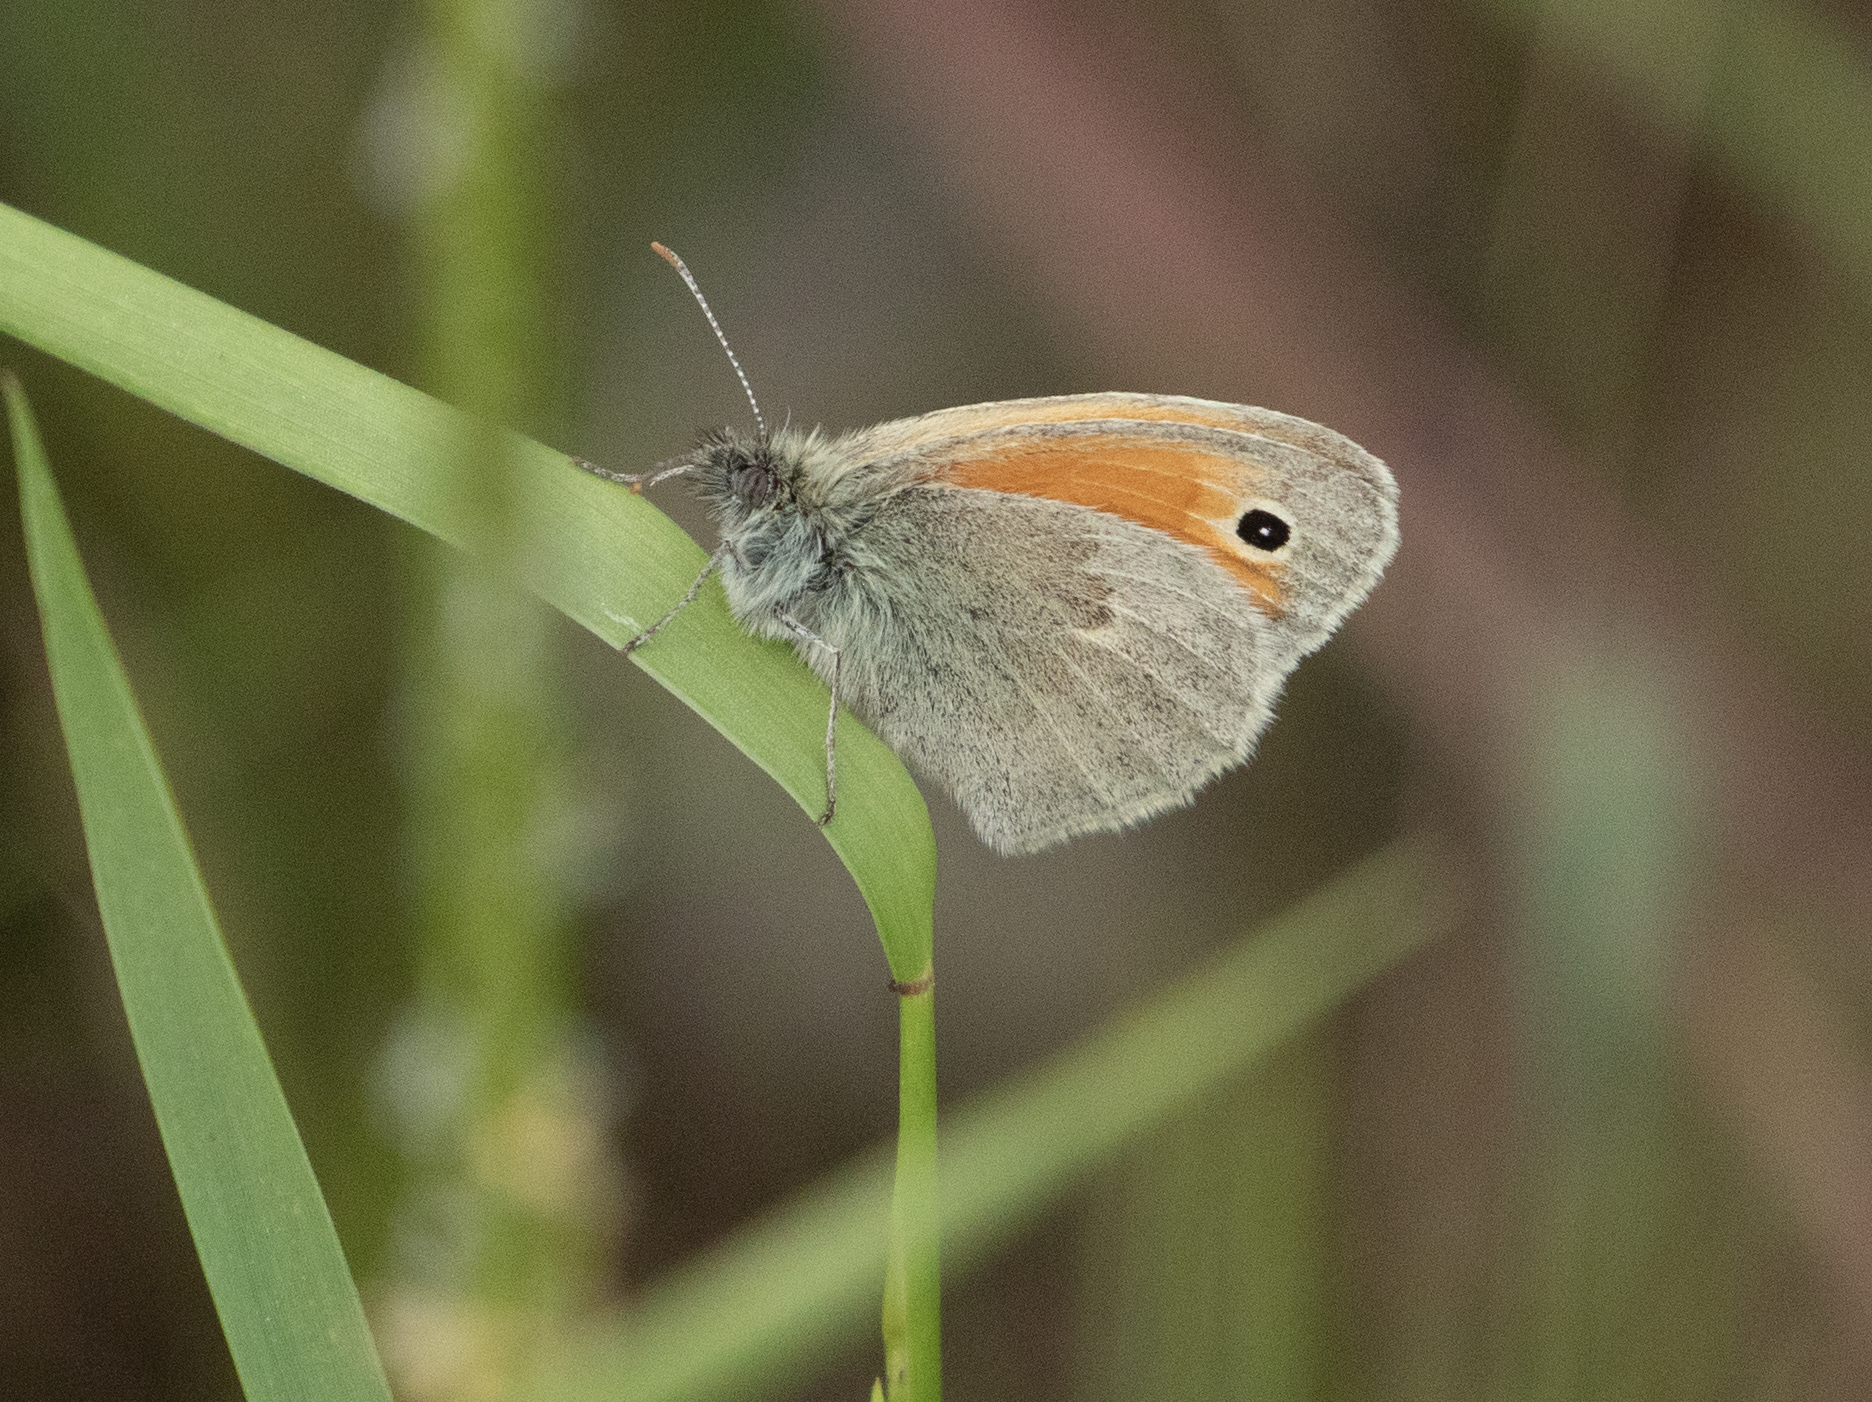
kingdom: Animalia
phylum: Arthropoda
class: Insecta
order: Lepidoptera
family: Nymphalidae
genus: Coenonympha
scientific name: Coenonympha pamphilus
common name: Small heath
